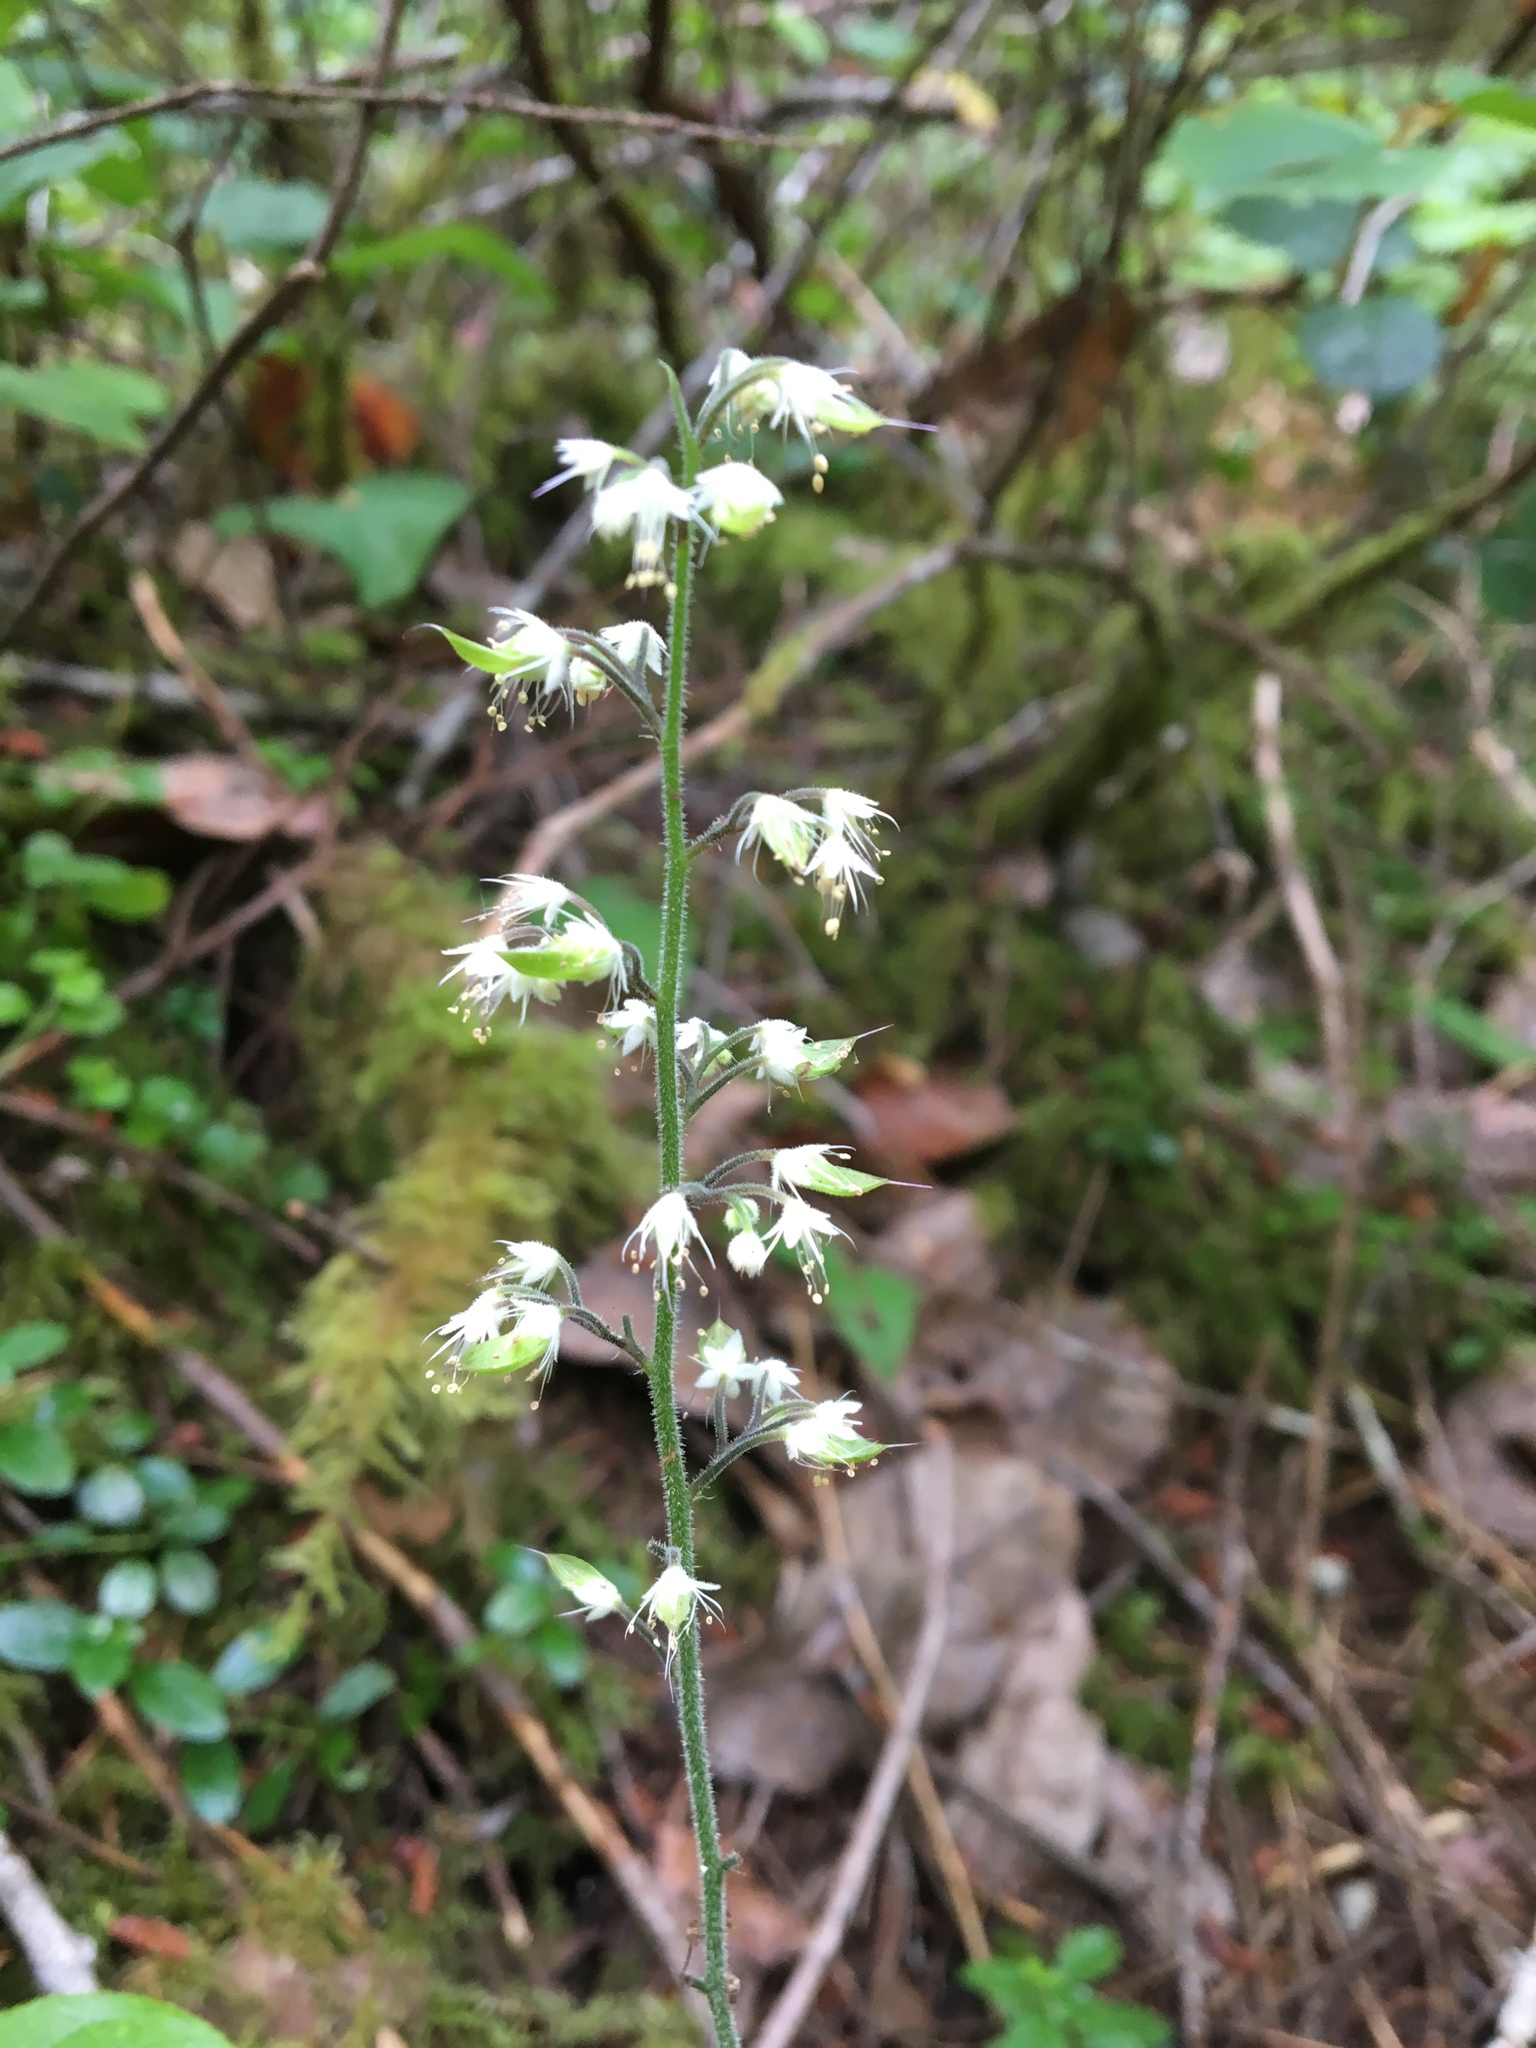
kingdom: Plantae
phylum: Tracheophyta
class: Magnoliopsida
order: Saxifragales
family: Saxifragaceae
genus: Tiarella
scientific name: Tiarella trifoliata
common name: Sugar-scoop
